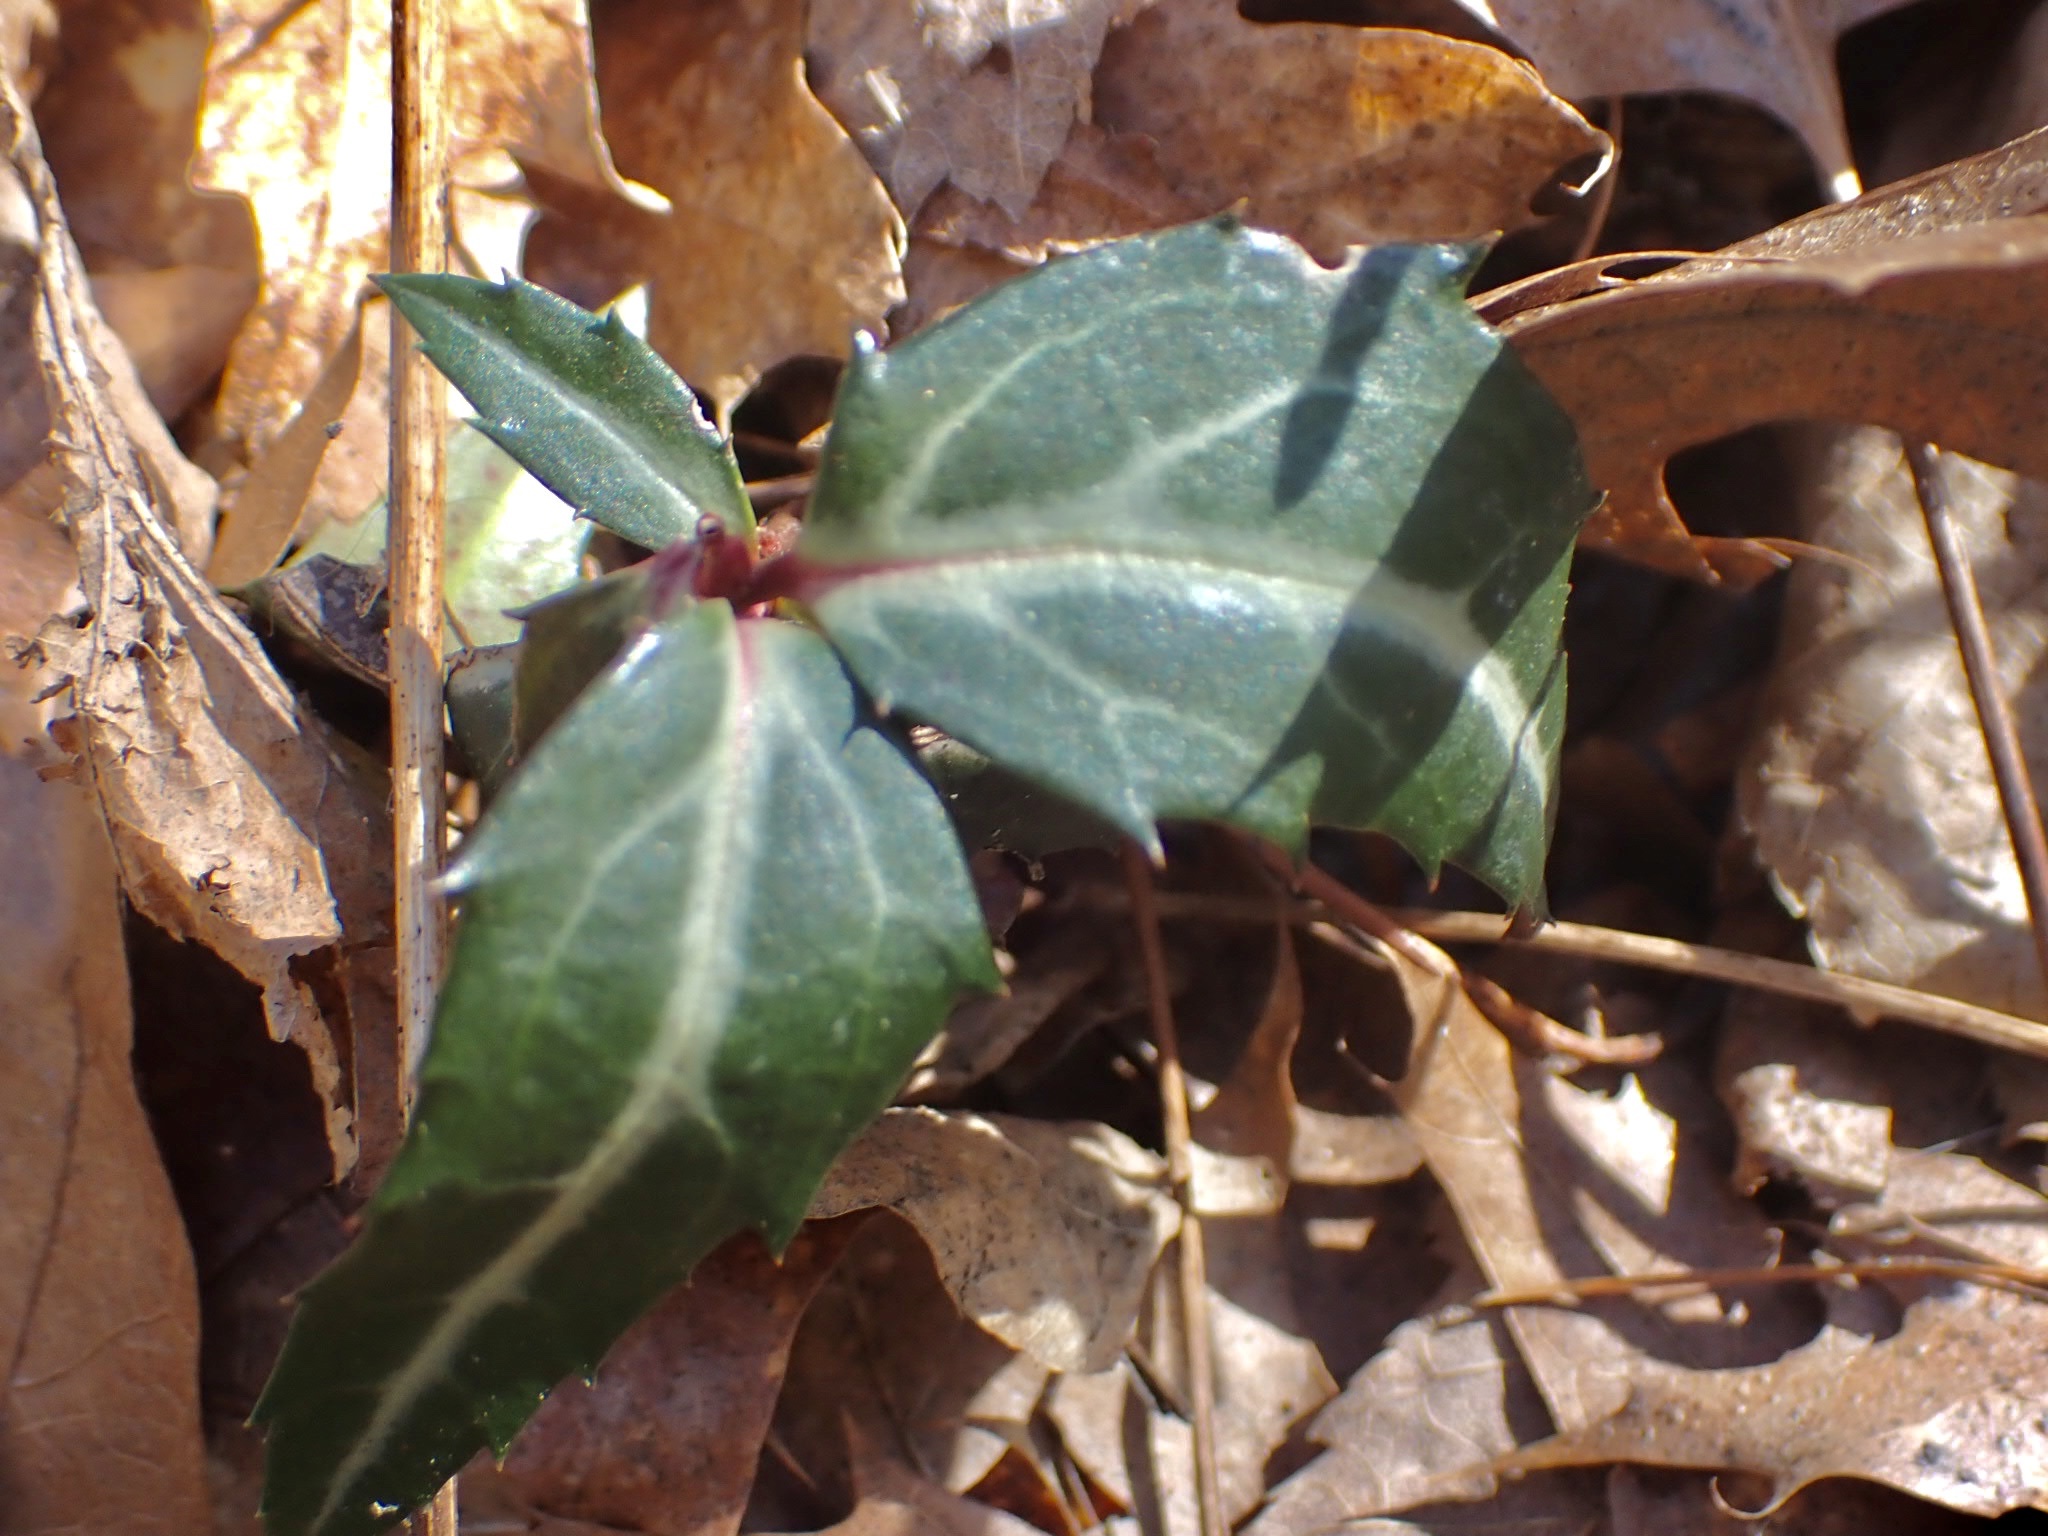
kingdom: Plantae
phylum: Tracheophyta
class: Magnoliopsida
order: Ericales
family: Ericaceae
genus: Chimaphila
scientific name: Chimaphila maculata
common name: Spotted pipsissewa
